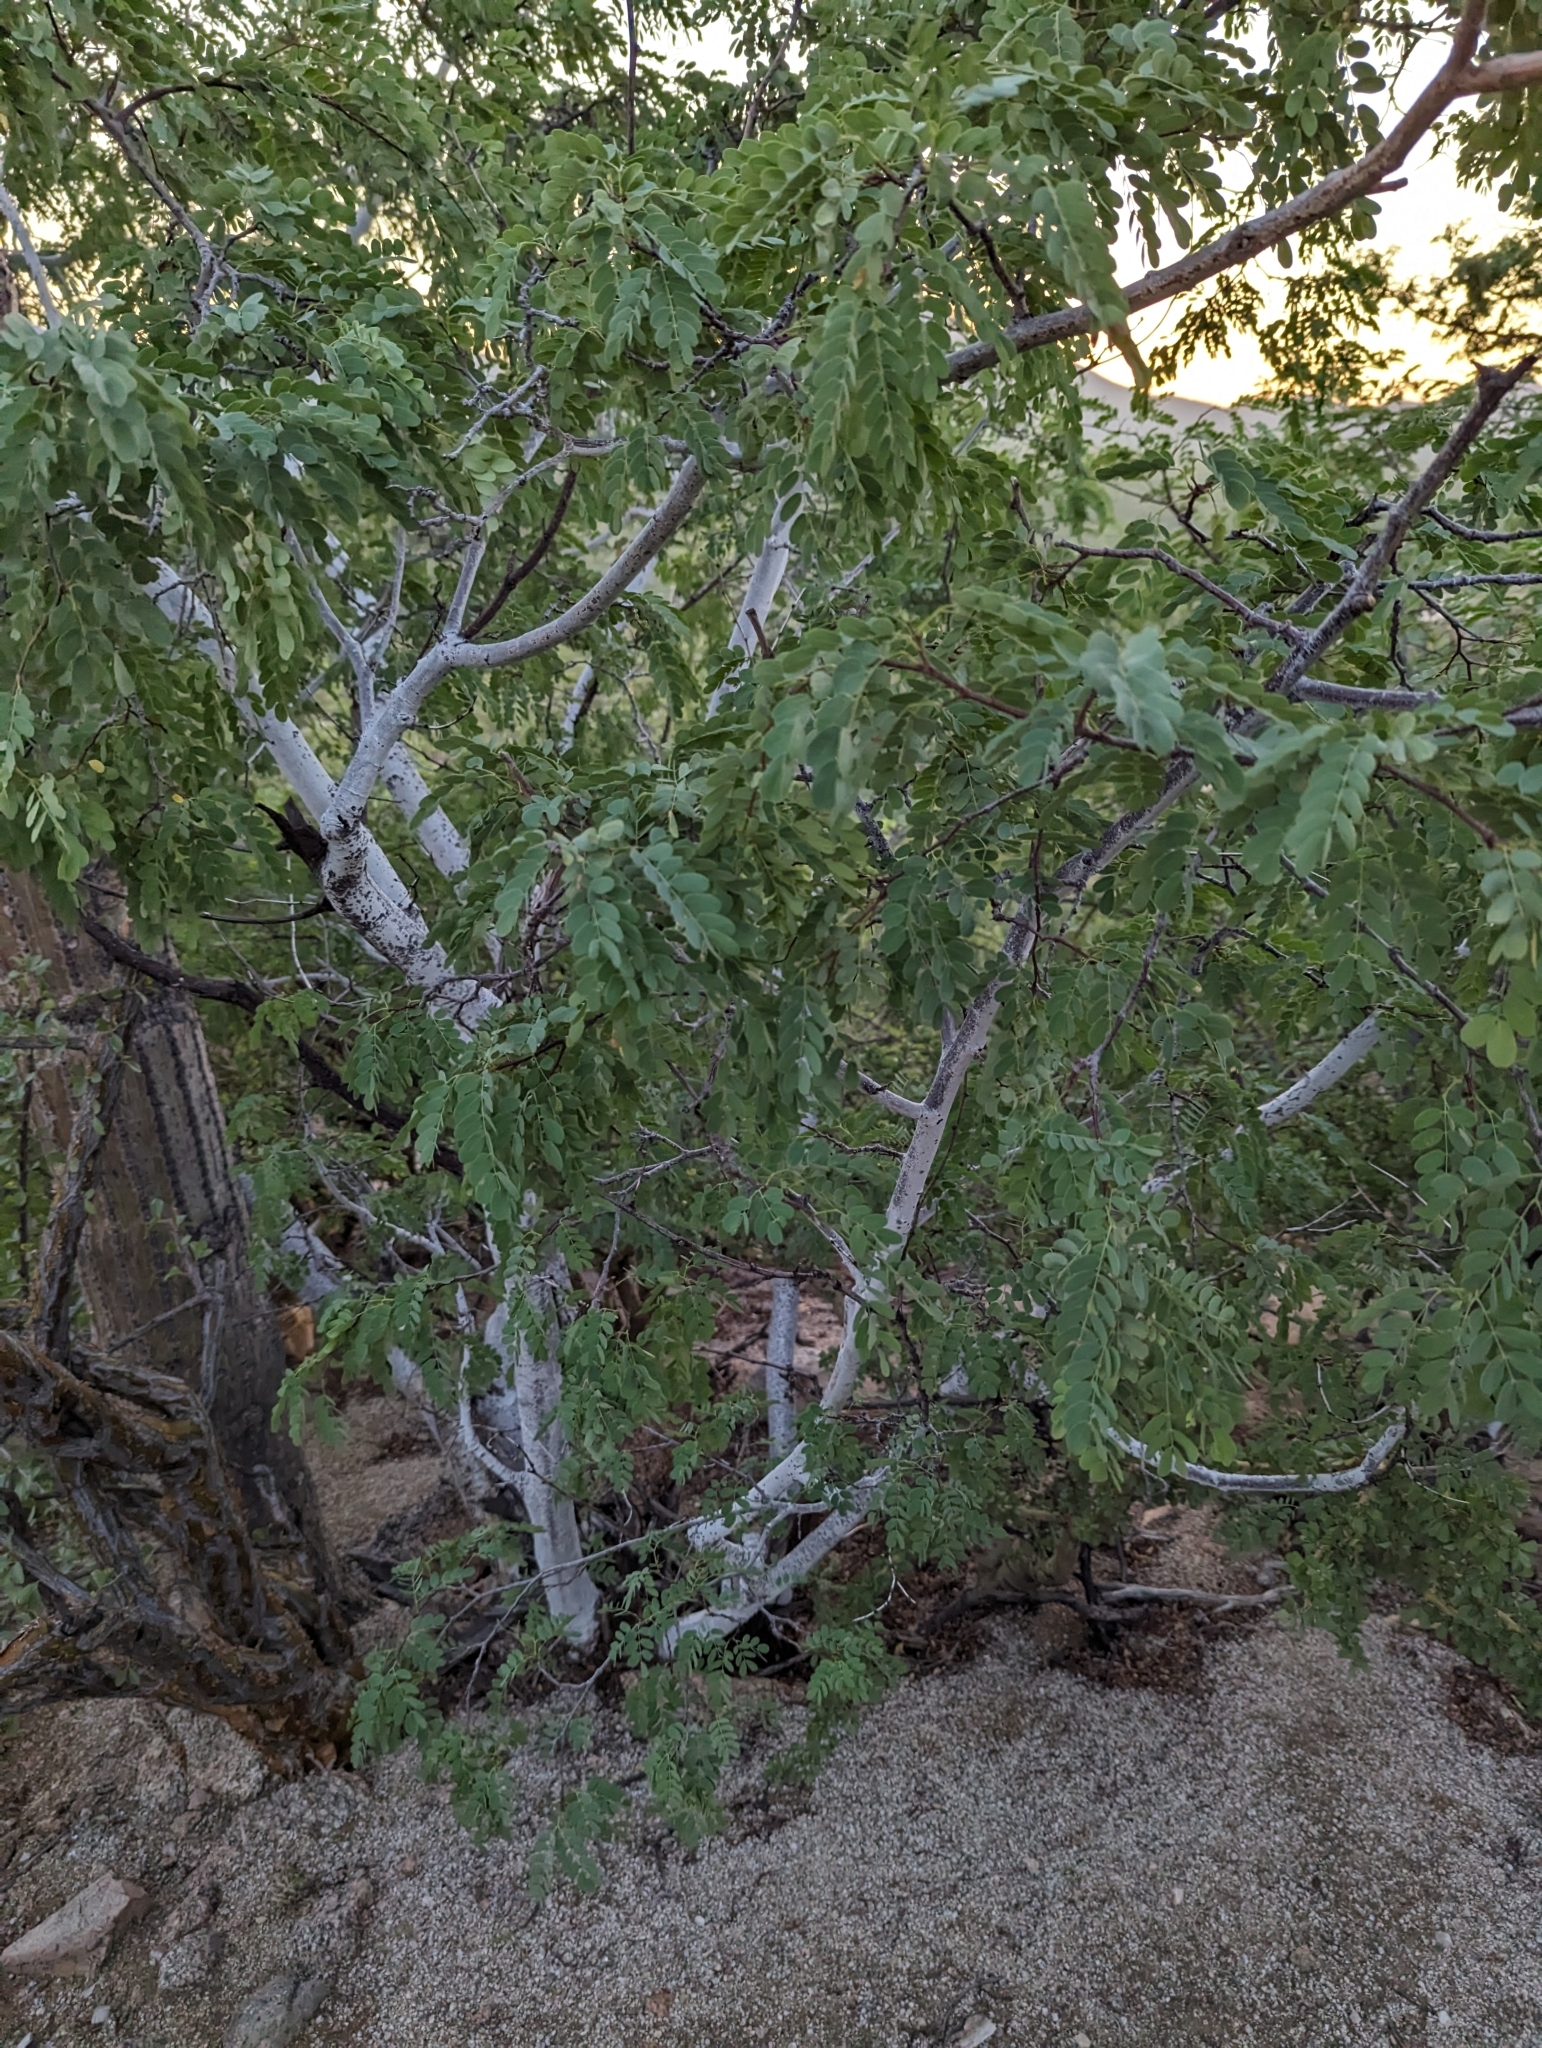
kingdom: Plantae
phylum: Tracheophyta
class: Magnoliopsida
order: Fabales
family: Fabaceae
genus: Lysiloma
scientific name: Lysiloma candidum
